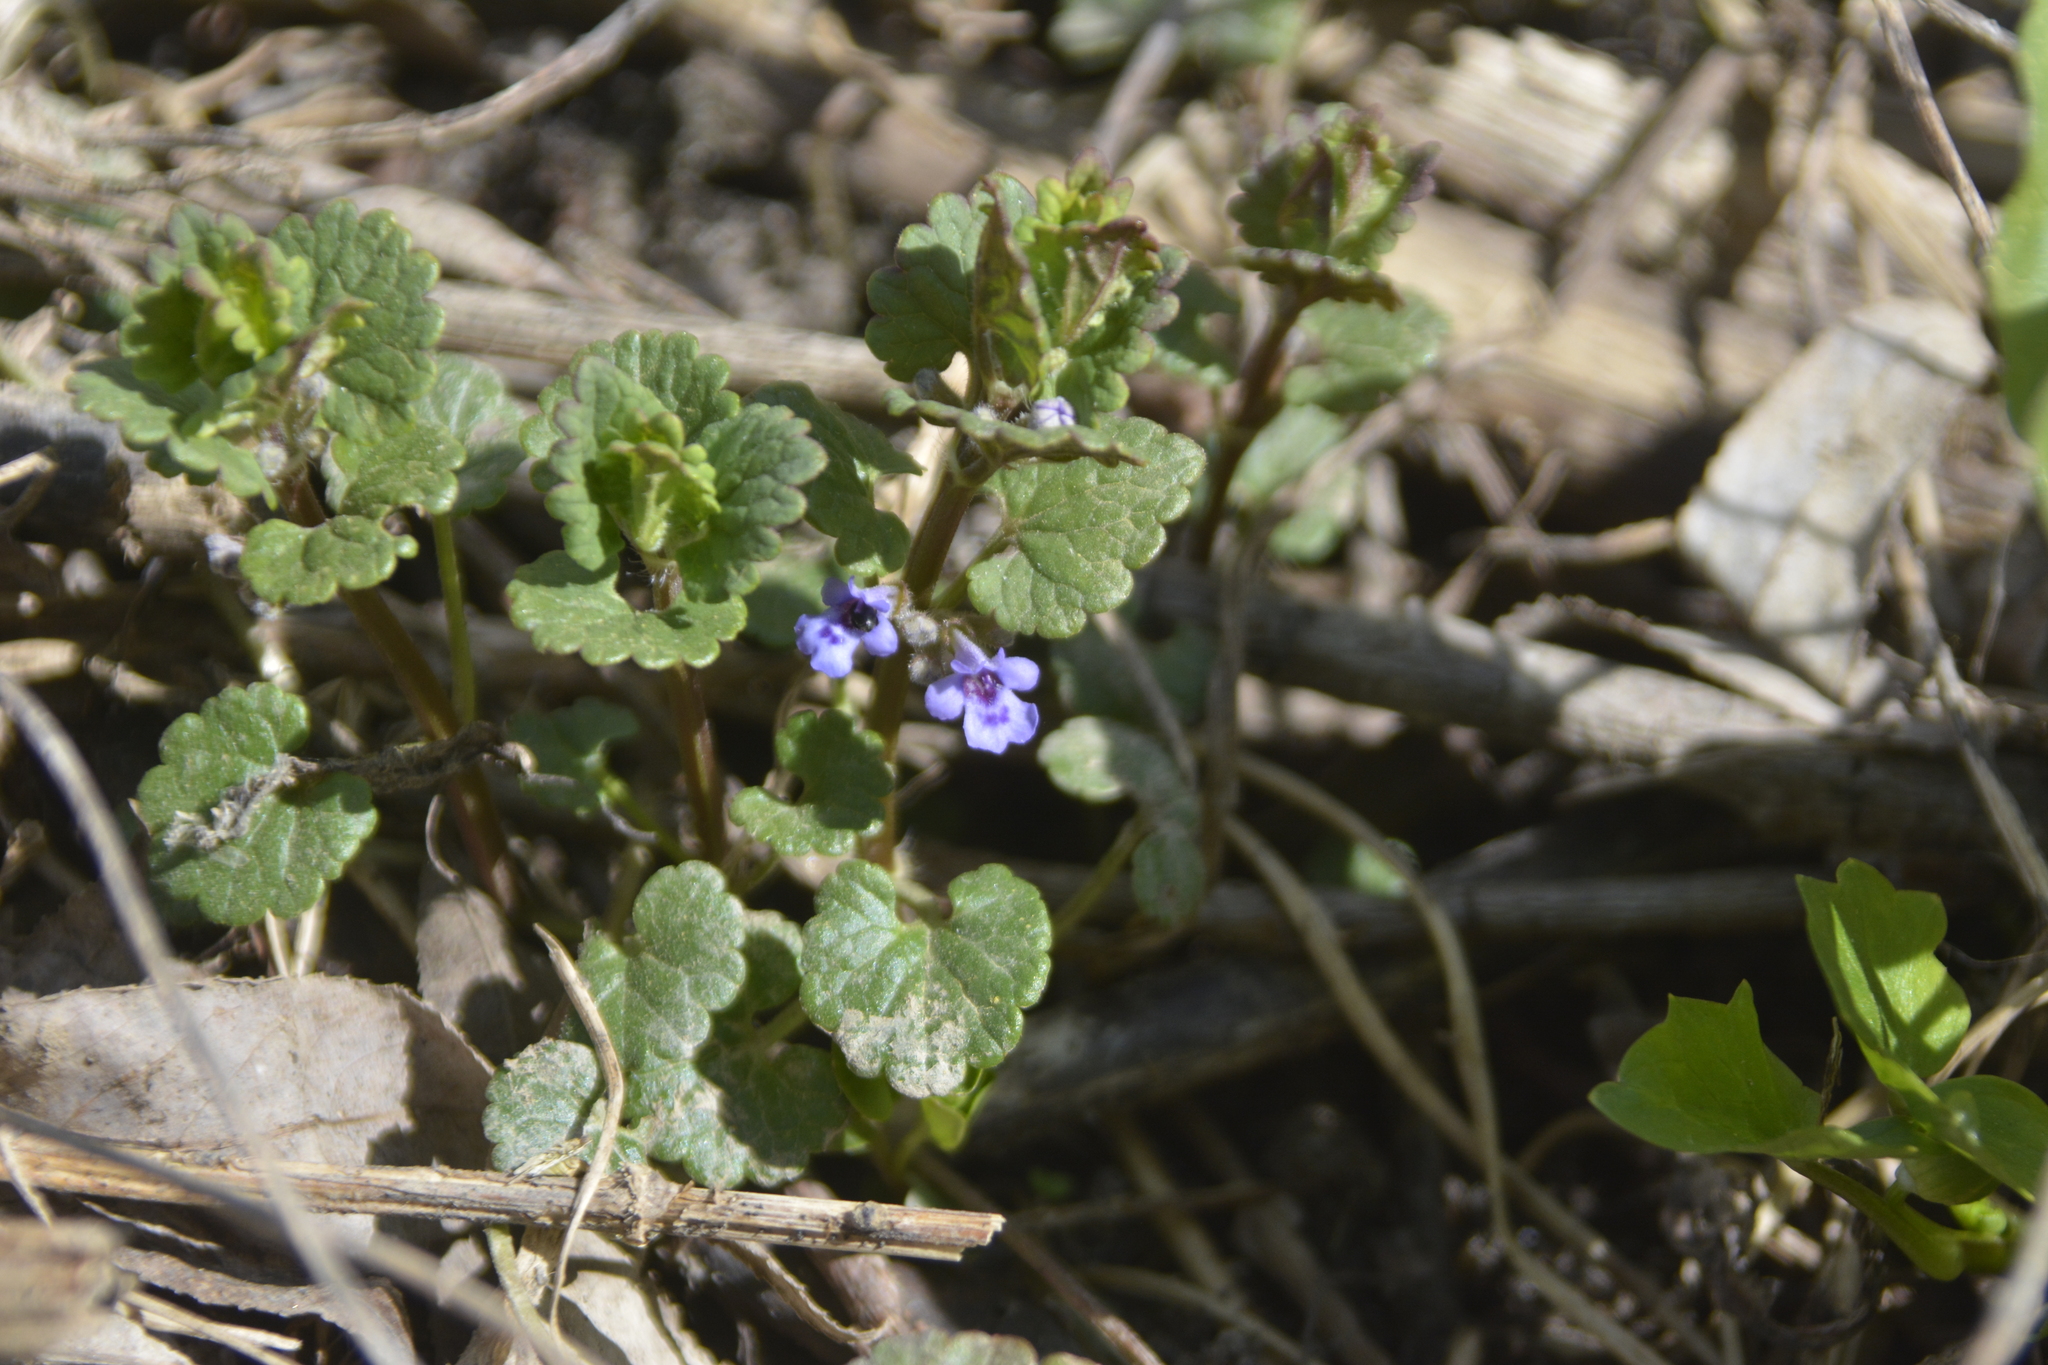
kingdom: Plantae
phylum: Tracheophyta
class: Magnoliopsida
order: Lamiales
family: Lamiaceae
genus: Glechoma
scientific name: Glechoma hederacea
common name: Ground ivy
